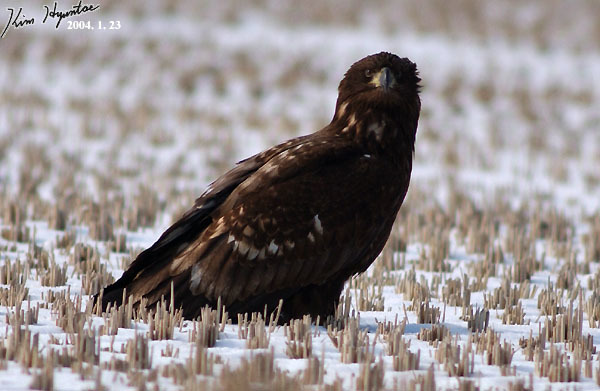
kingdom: Animalia
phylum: Chordata
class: Aves
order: Accipitriformes
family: Accipitridae
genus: Haliaeetus
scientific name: Haliaeetus albicilla
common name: White-tailed eagle
